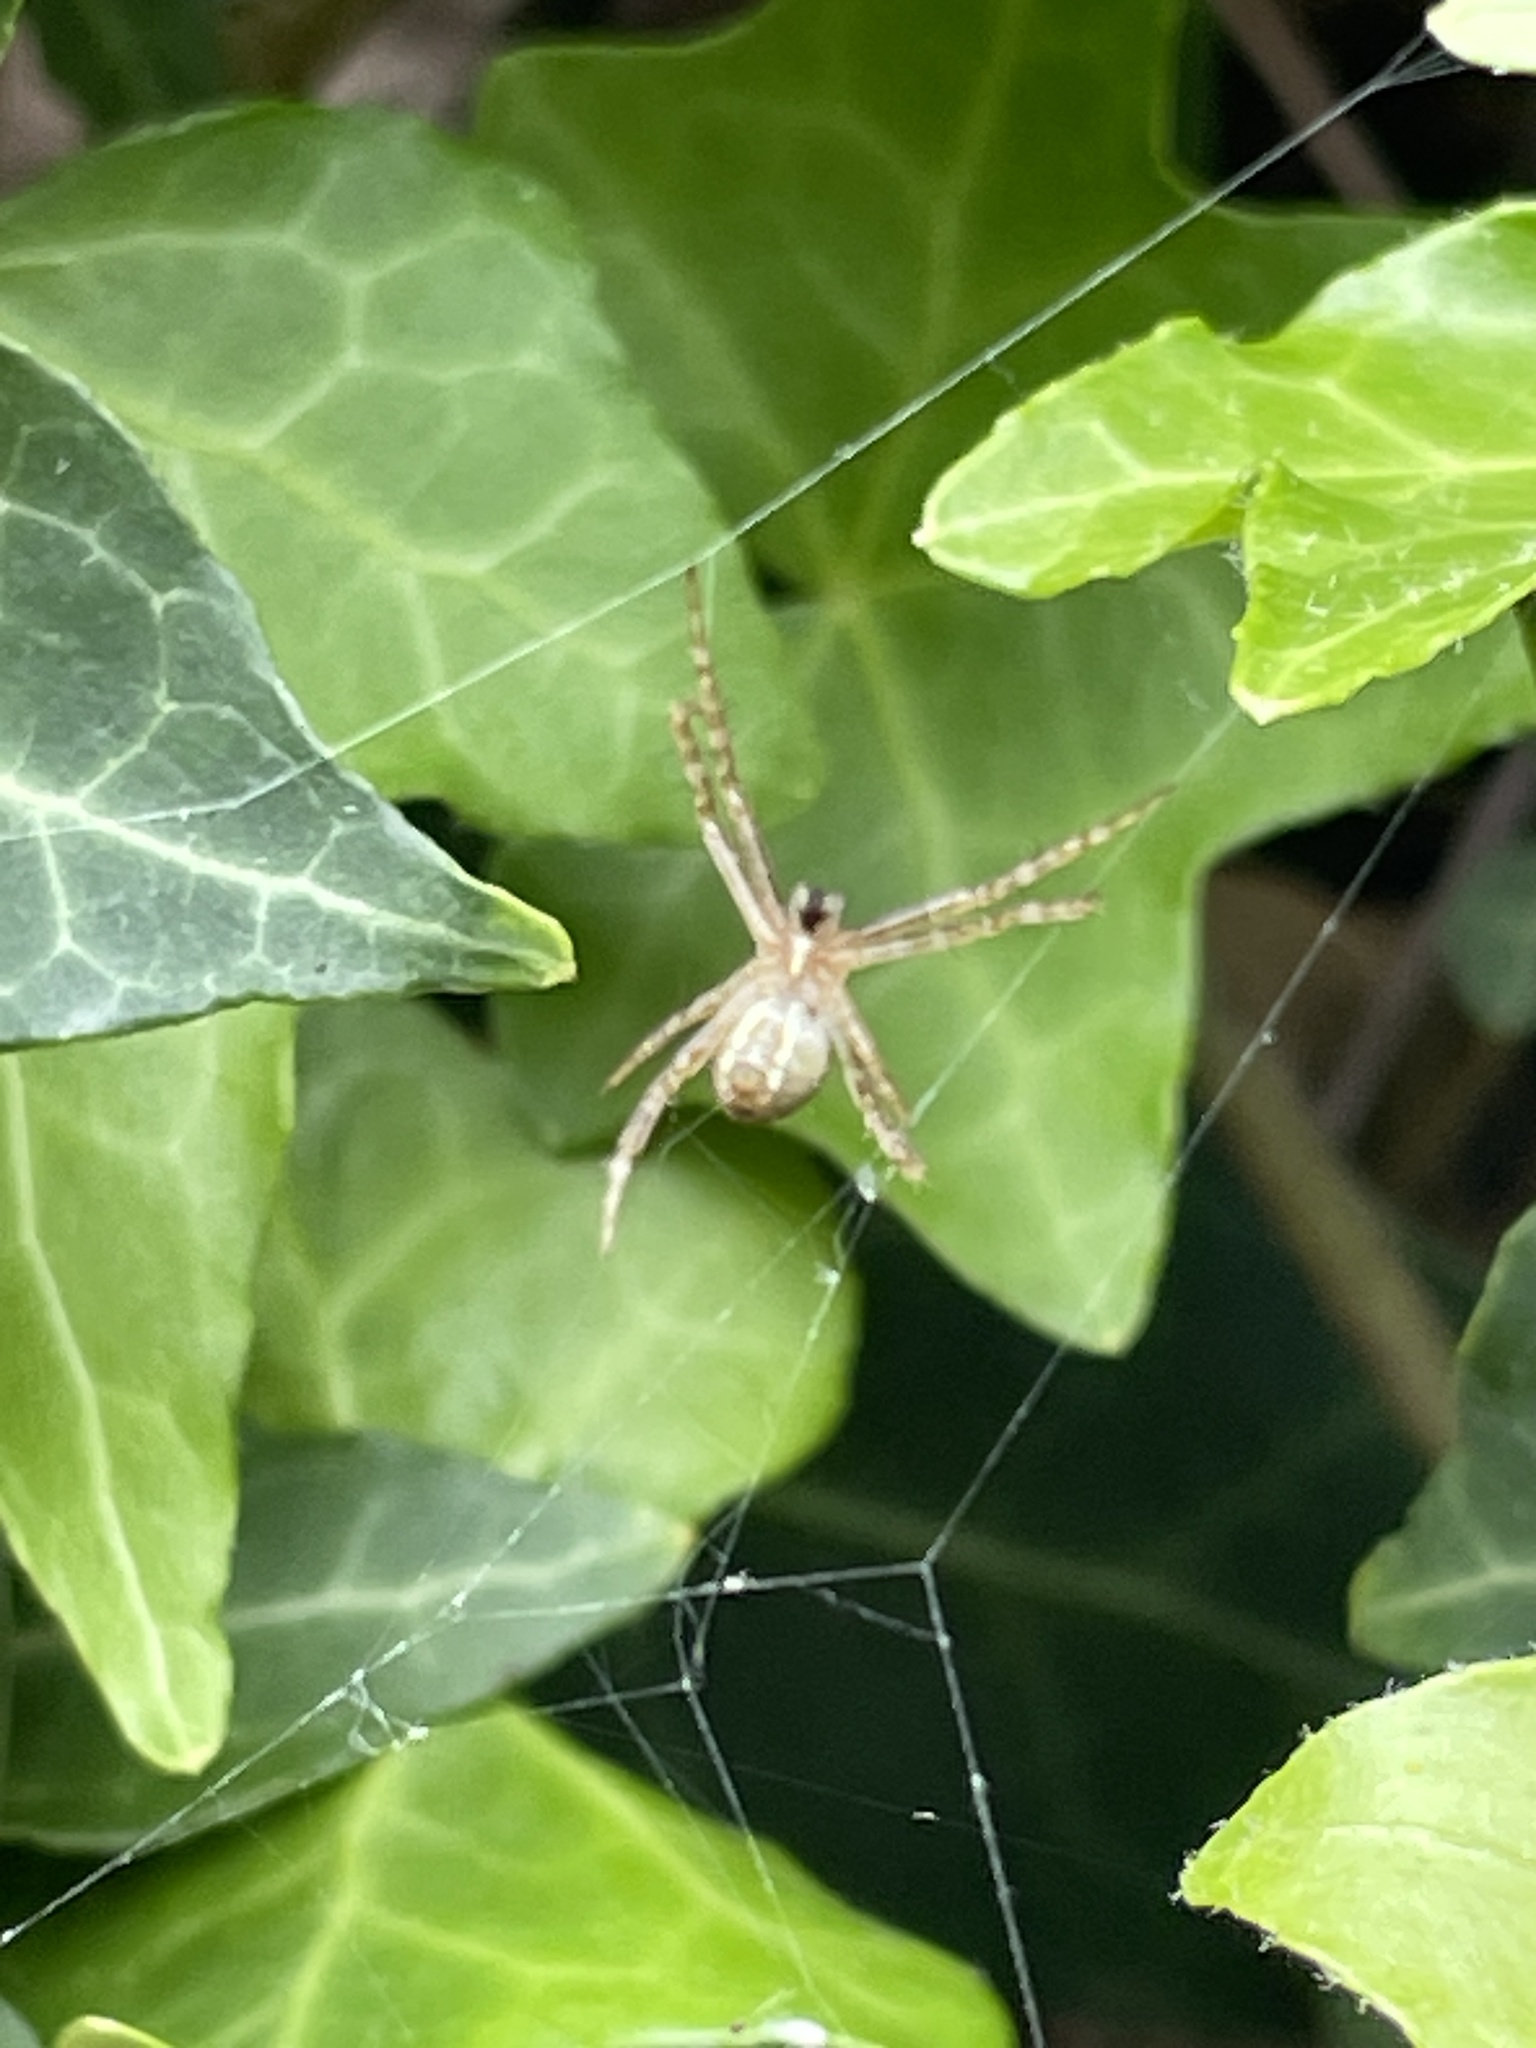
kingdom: Animalia
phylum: Arthropoda
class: Arachnida
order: Araneae
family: Araneidae
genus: Argiope
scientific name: Argiope keyserlingi
